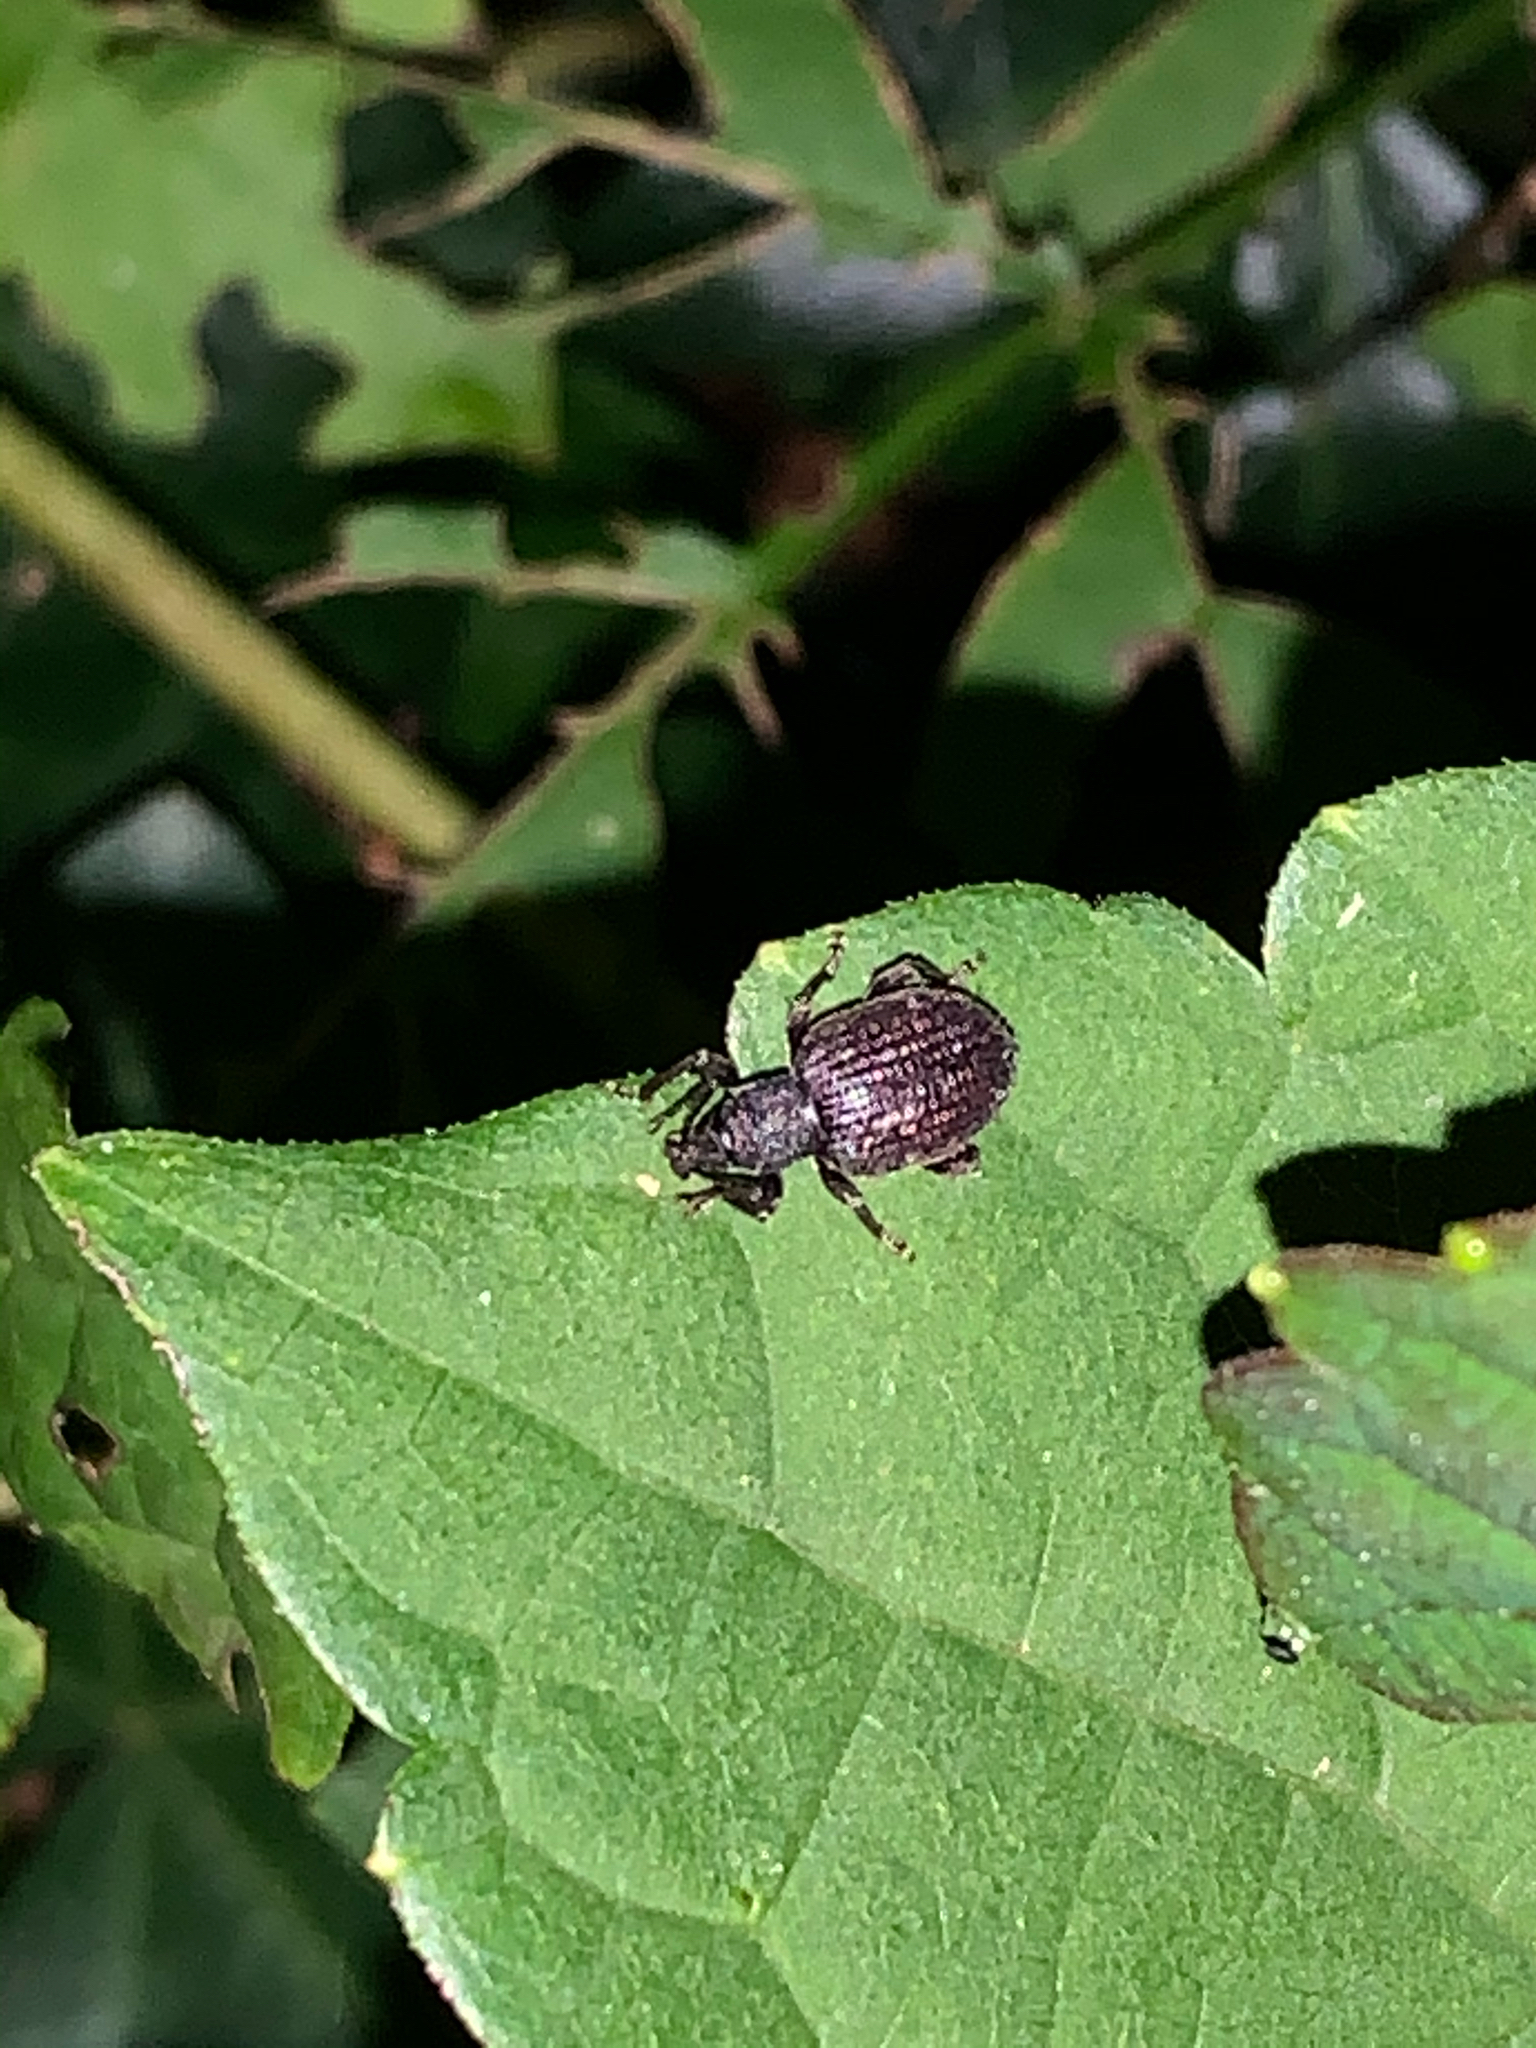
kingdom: Animalia
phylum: Arthropoda
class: Insecta
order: Coleoptera
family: Curculionidae
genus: Otiorhynchus
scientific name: Otiorhynchus rugosostriatus
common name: Weevil
